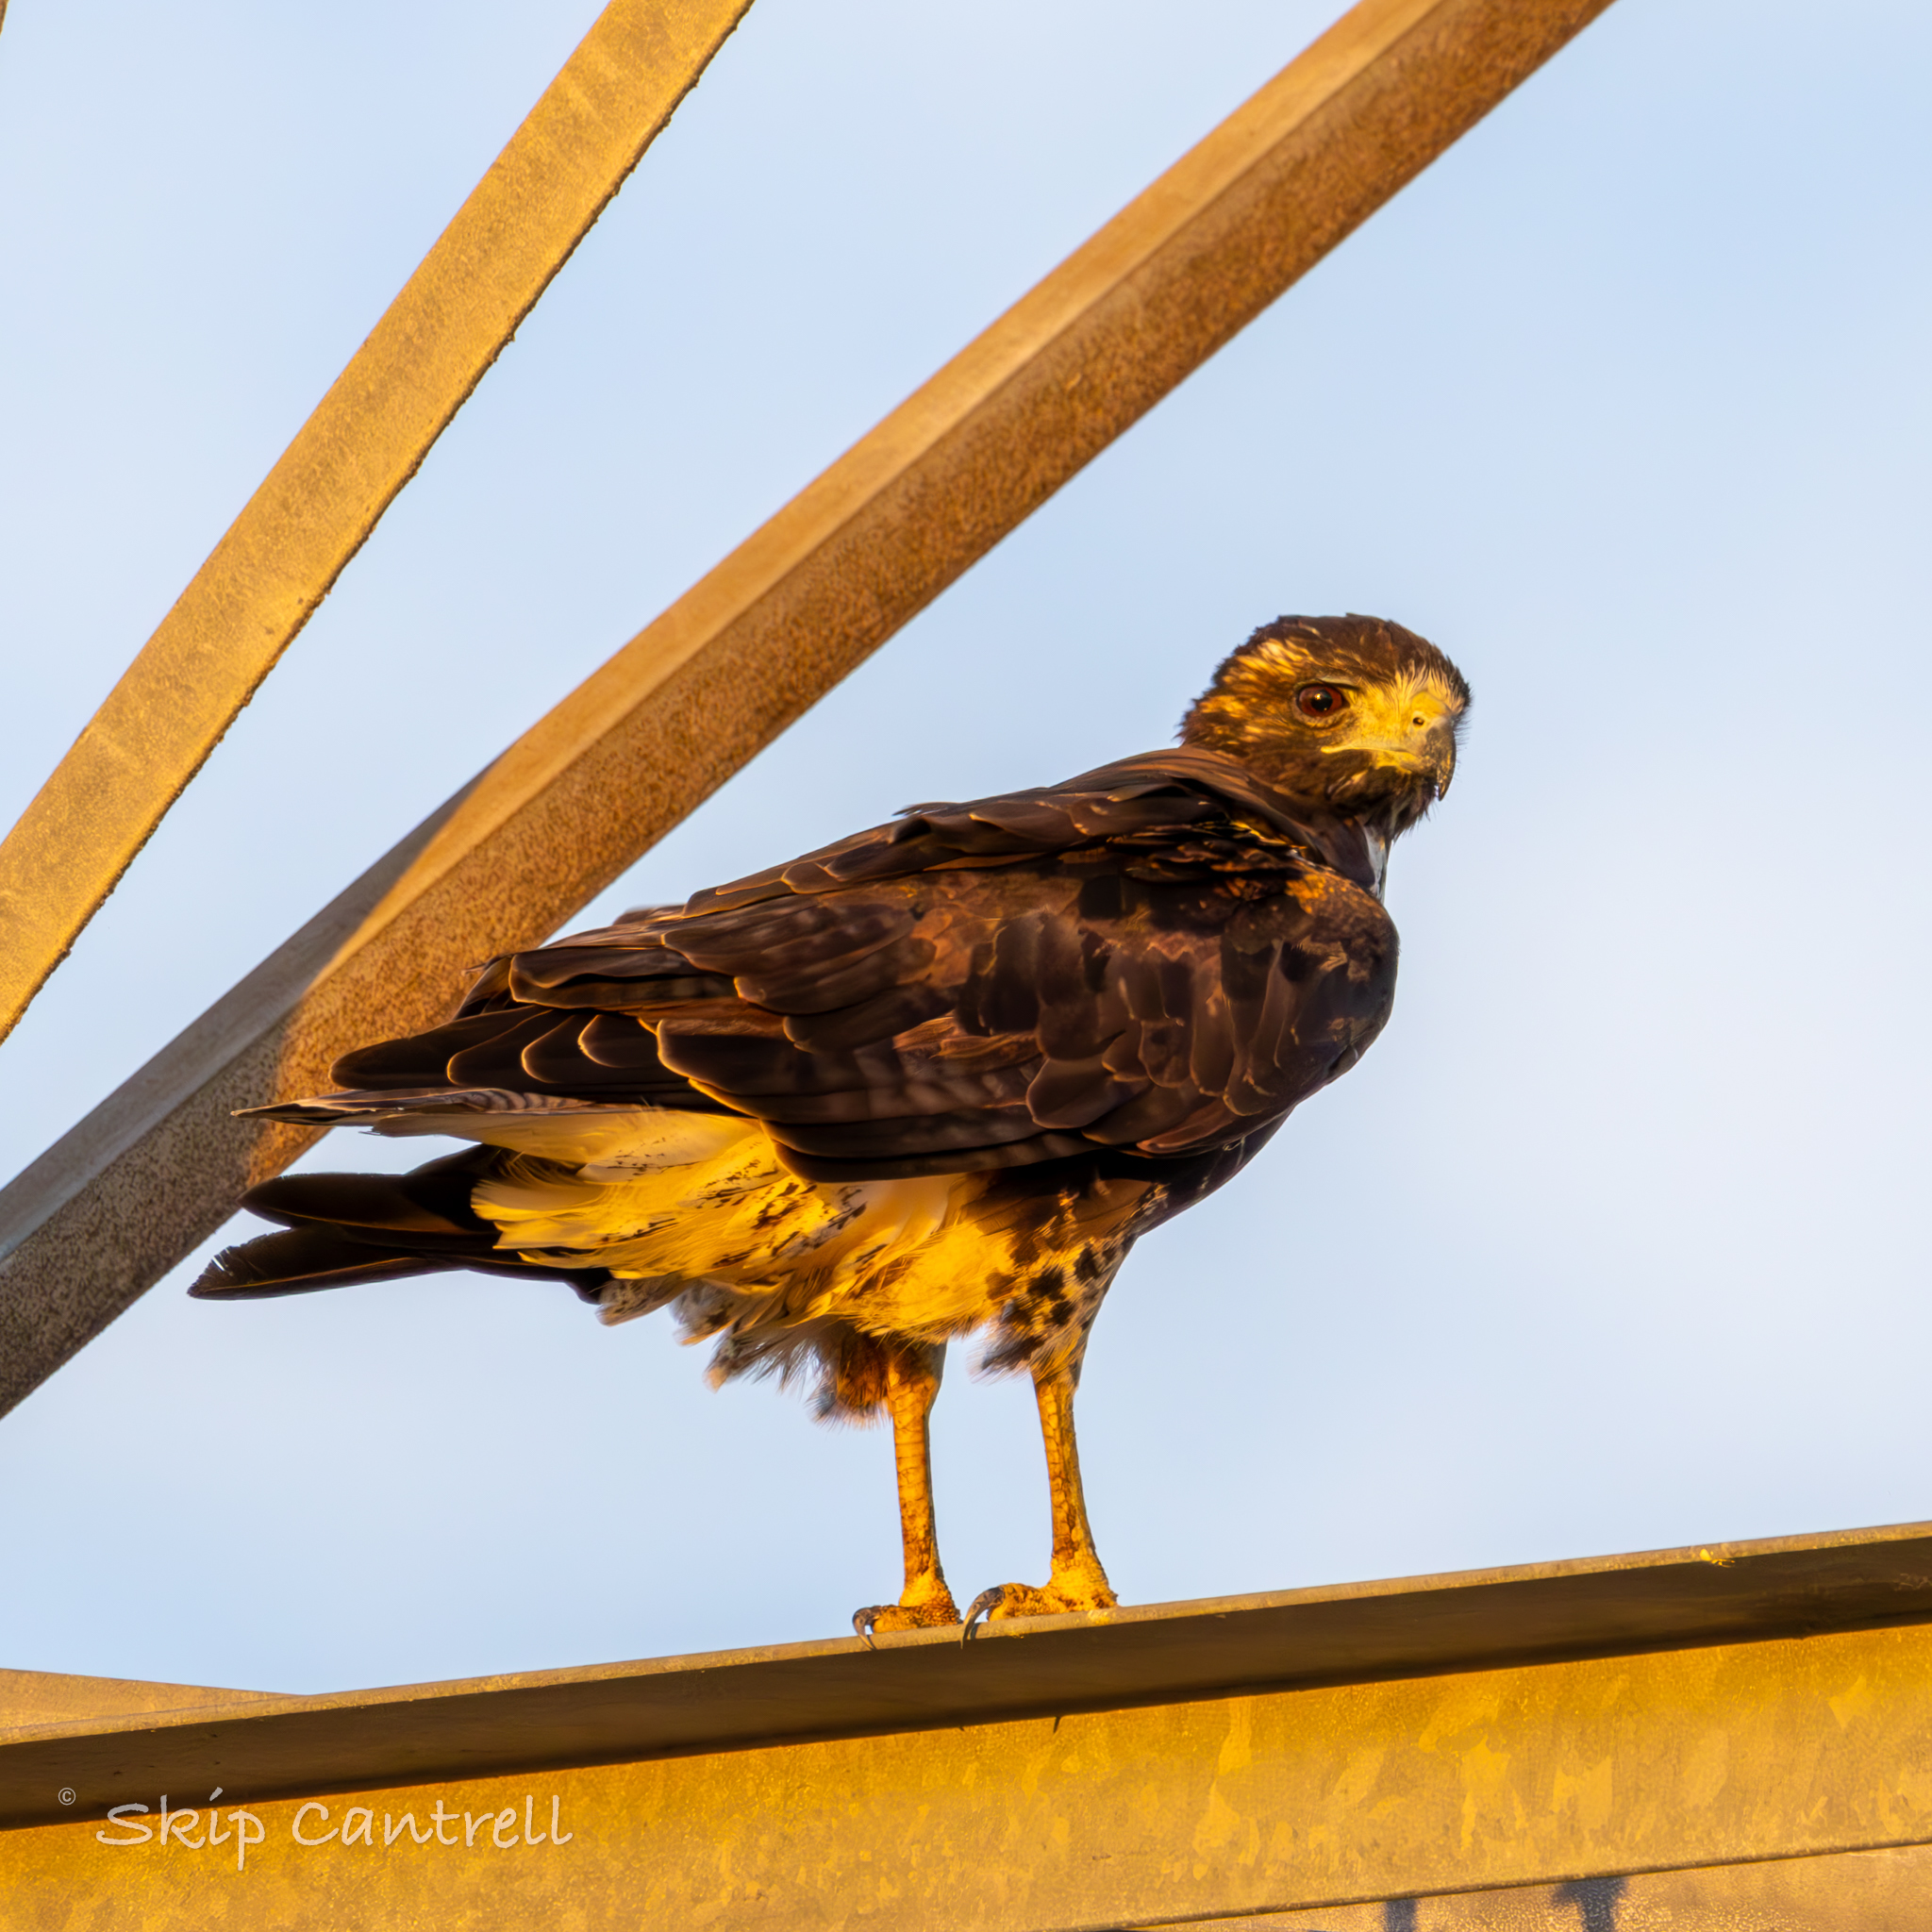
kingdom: Animalia
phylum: Chordata
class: Aves
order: Accipitriformes
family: Accipitridae
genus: Buteo
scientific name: Buteo albicaudatus
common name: White-tailed hawk
